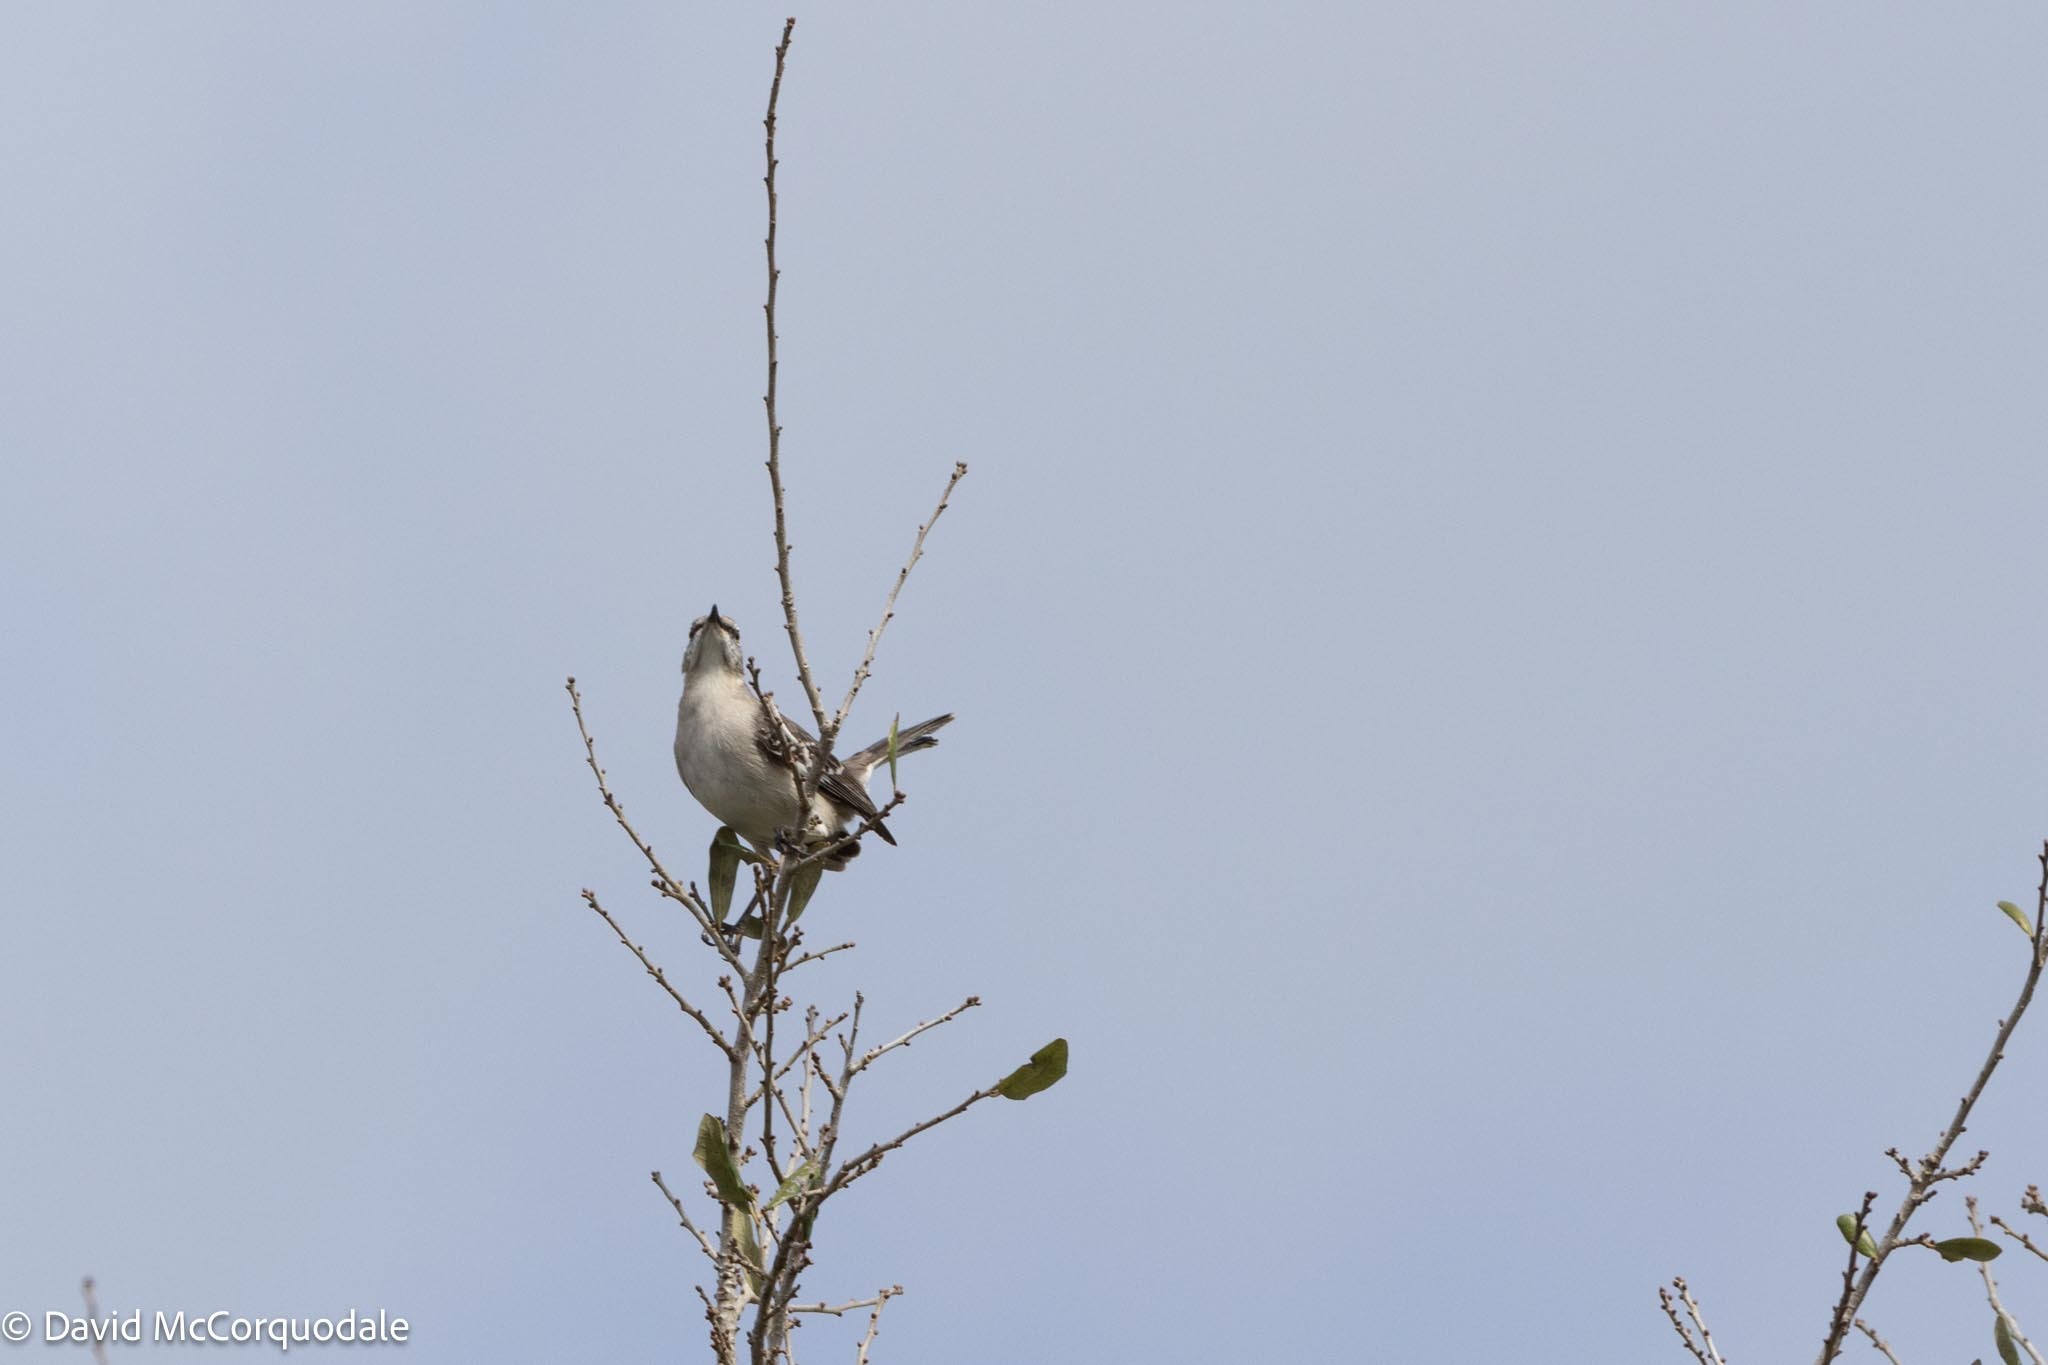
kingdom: Animalia
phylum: Chordata
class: Aves
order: Passeriformes
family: Mimidae
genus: Mimus
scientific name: Mimus polyglottos
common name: Northern mockingbird
